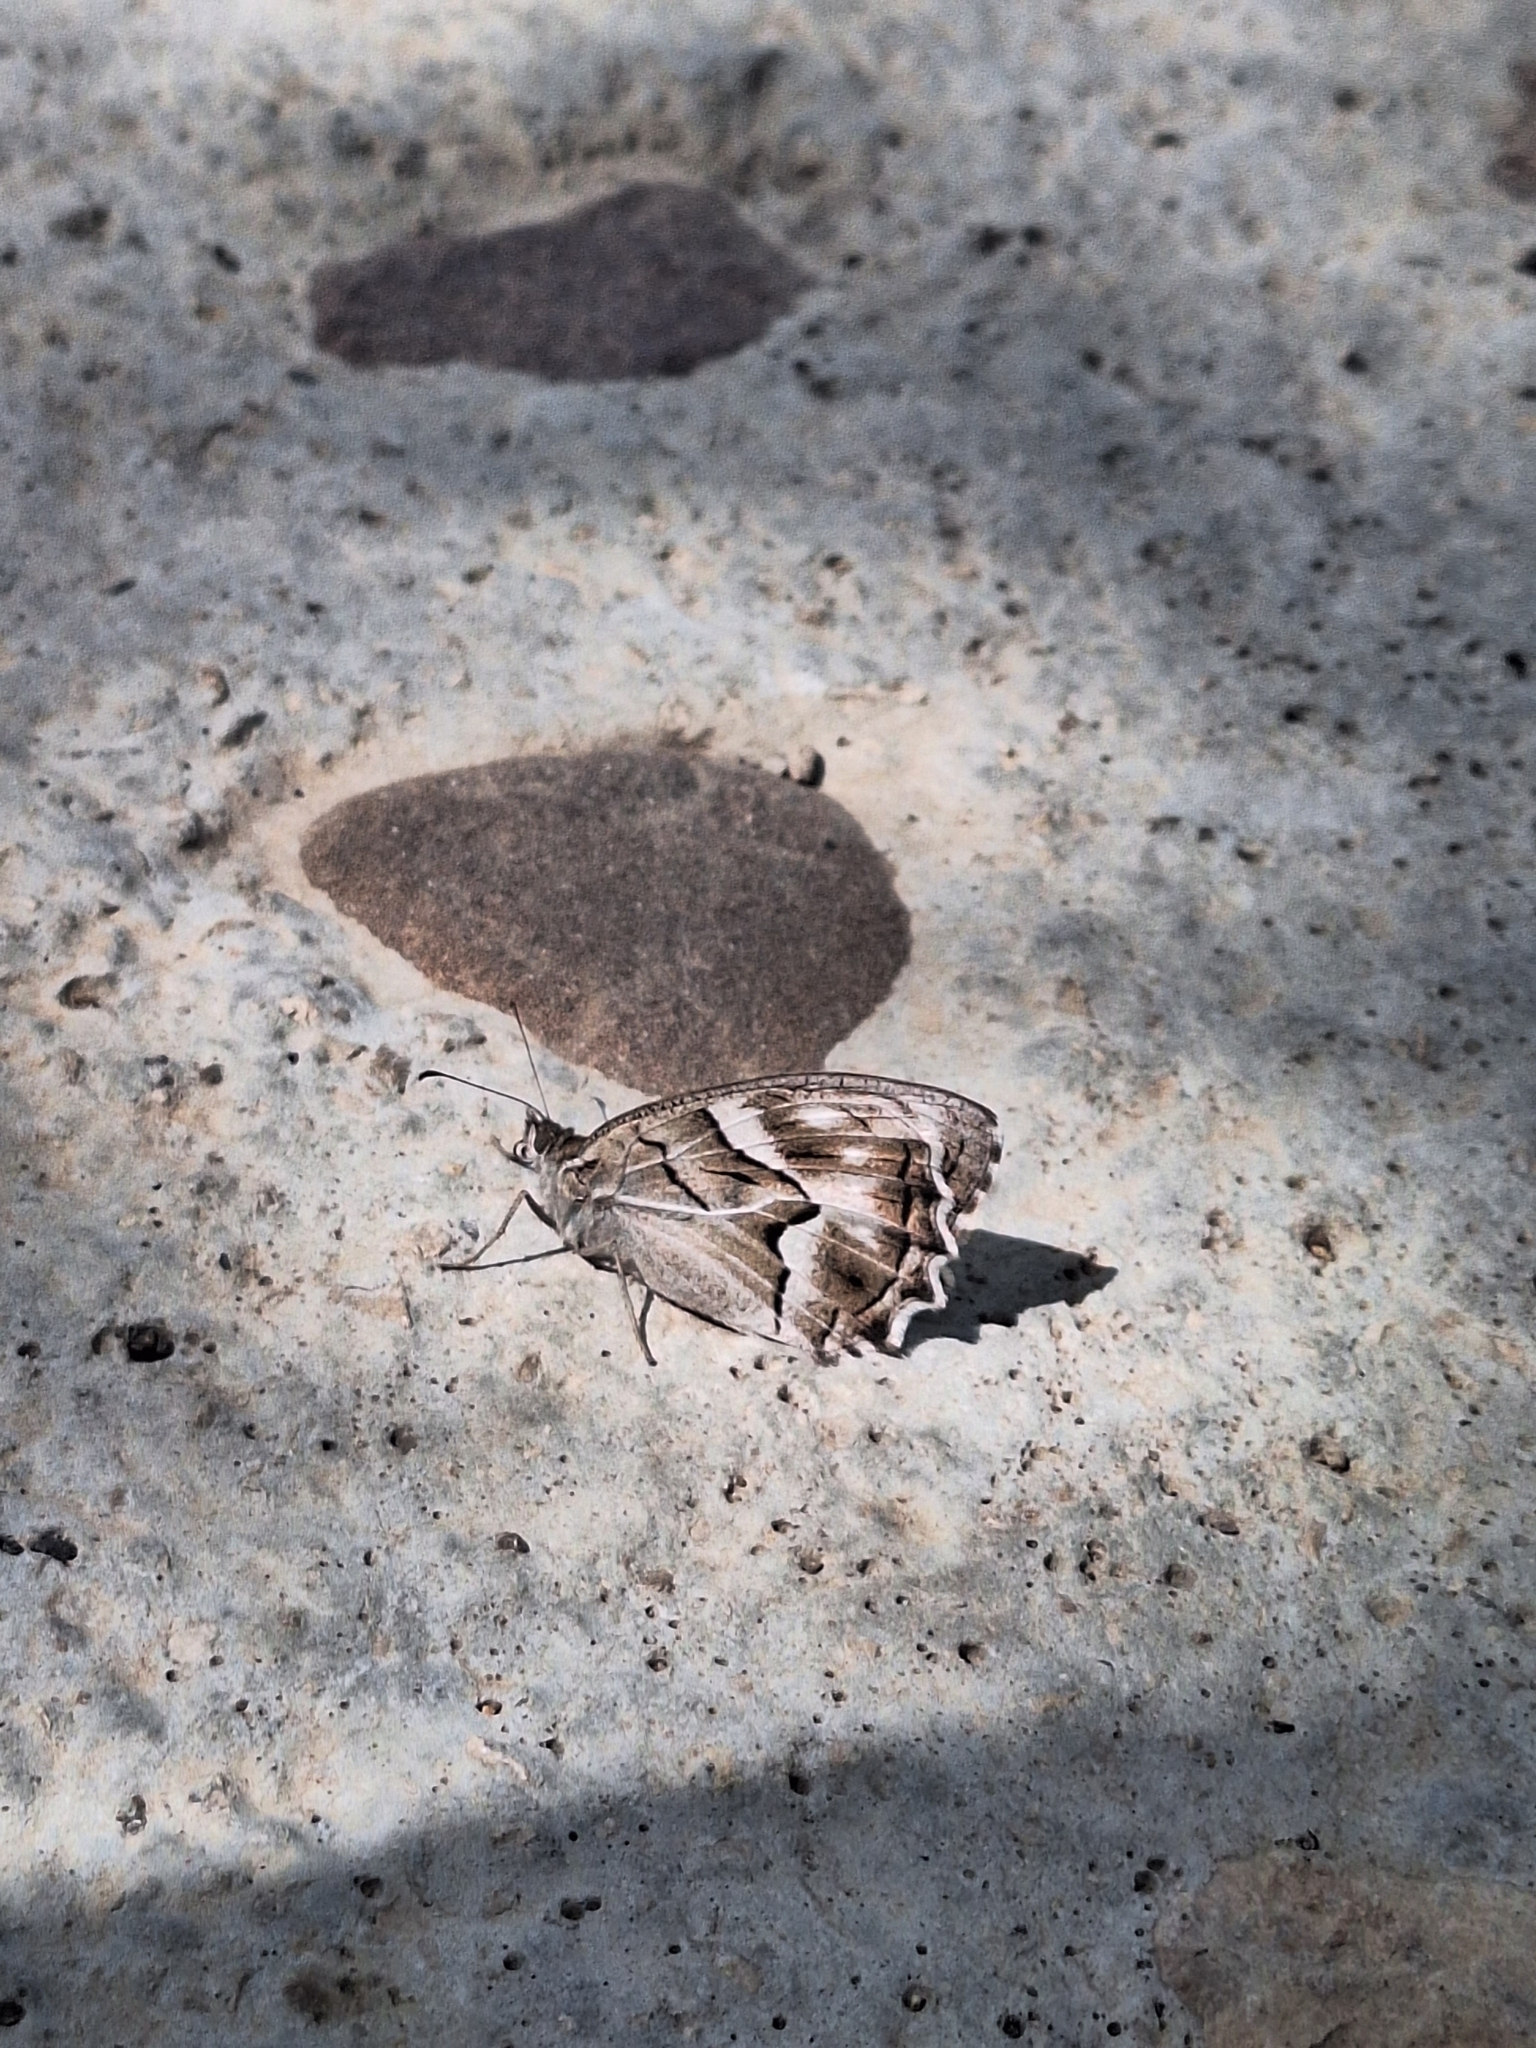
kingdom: Animalia
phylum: Arthropoda
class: Insecta
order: Lepidoptera
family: Nymphalidae
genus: Hipparchia
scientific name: Hipparchia fidia
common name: Striped grayling
